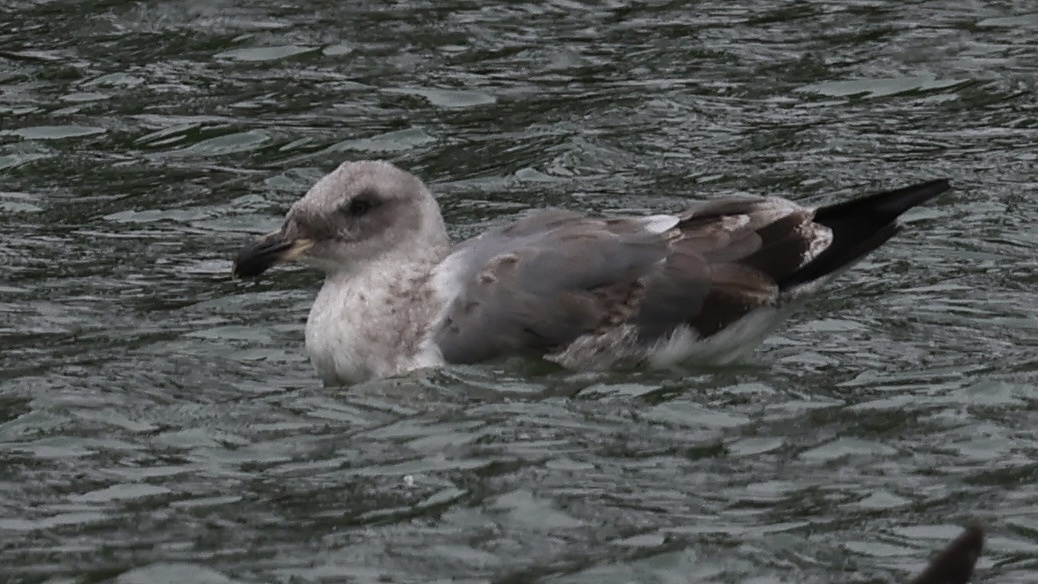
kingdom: Animalia
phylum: Chordata
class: Aves
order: Charadriiformes
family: Laridae
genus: Larus
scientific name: Larus occidentalis
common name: Western gull
